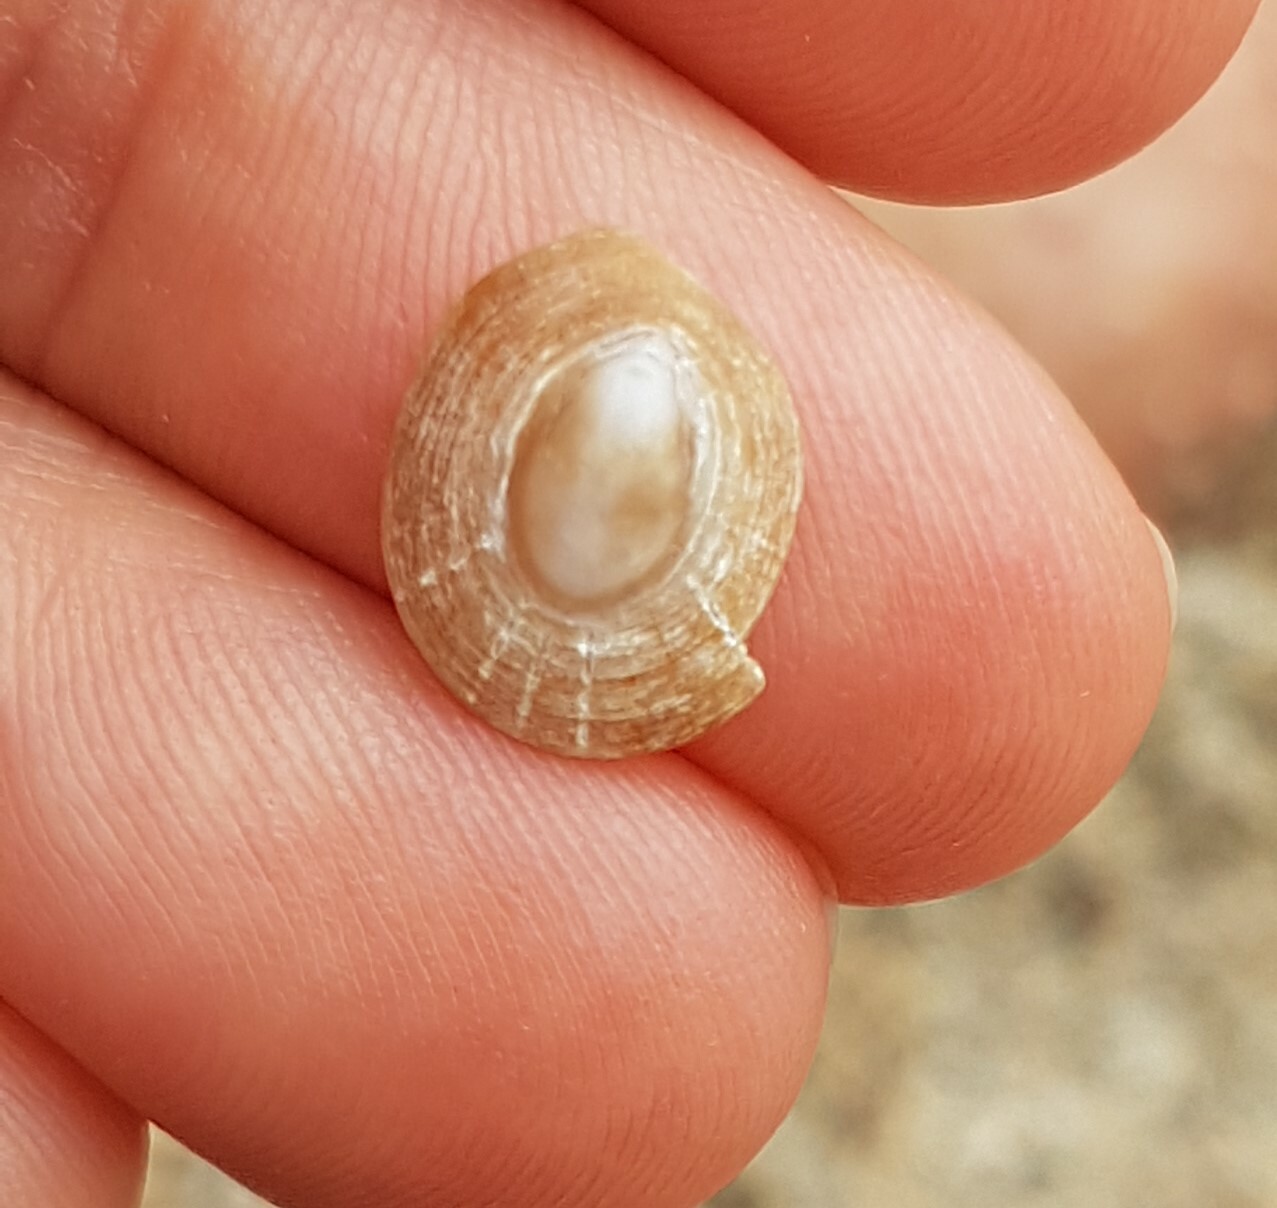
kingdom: Animalia
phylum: Mollusca
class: Gastropoda
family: Patellidae
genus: Patella
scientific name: Patella pellucida
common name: Blue-rayed limpet
